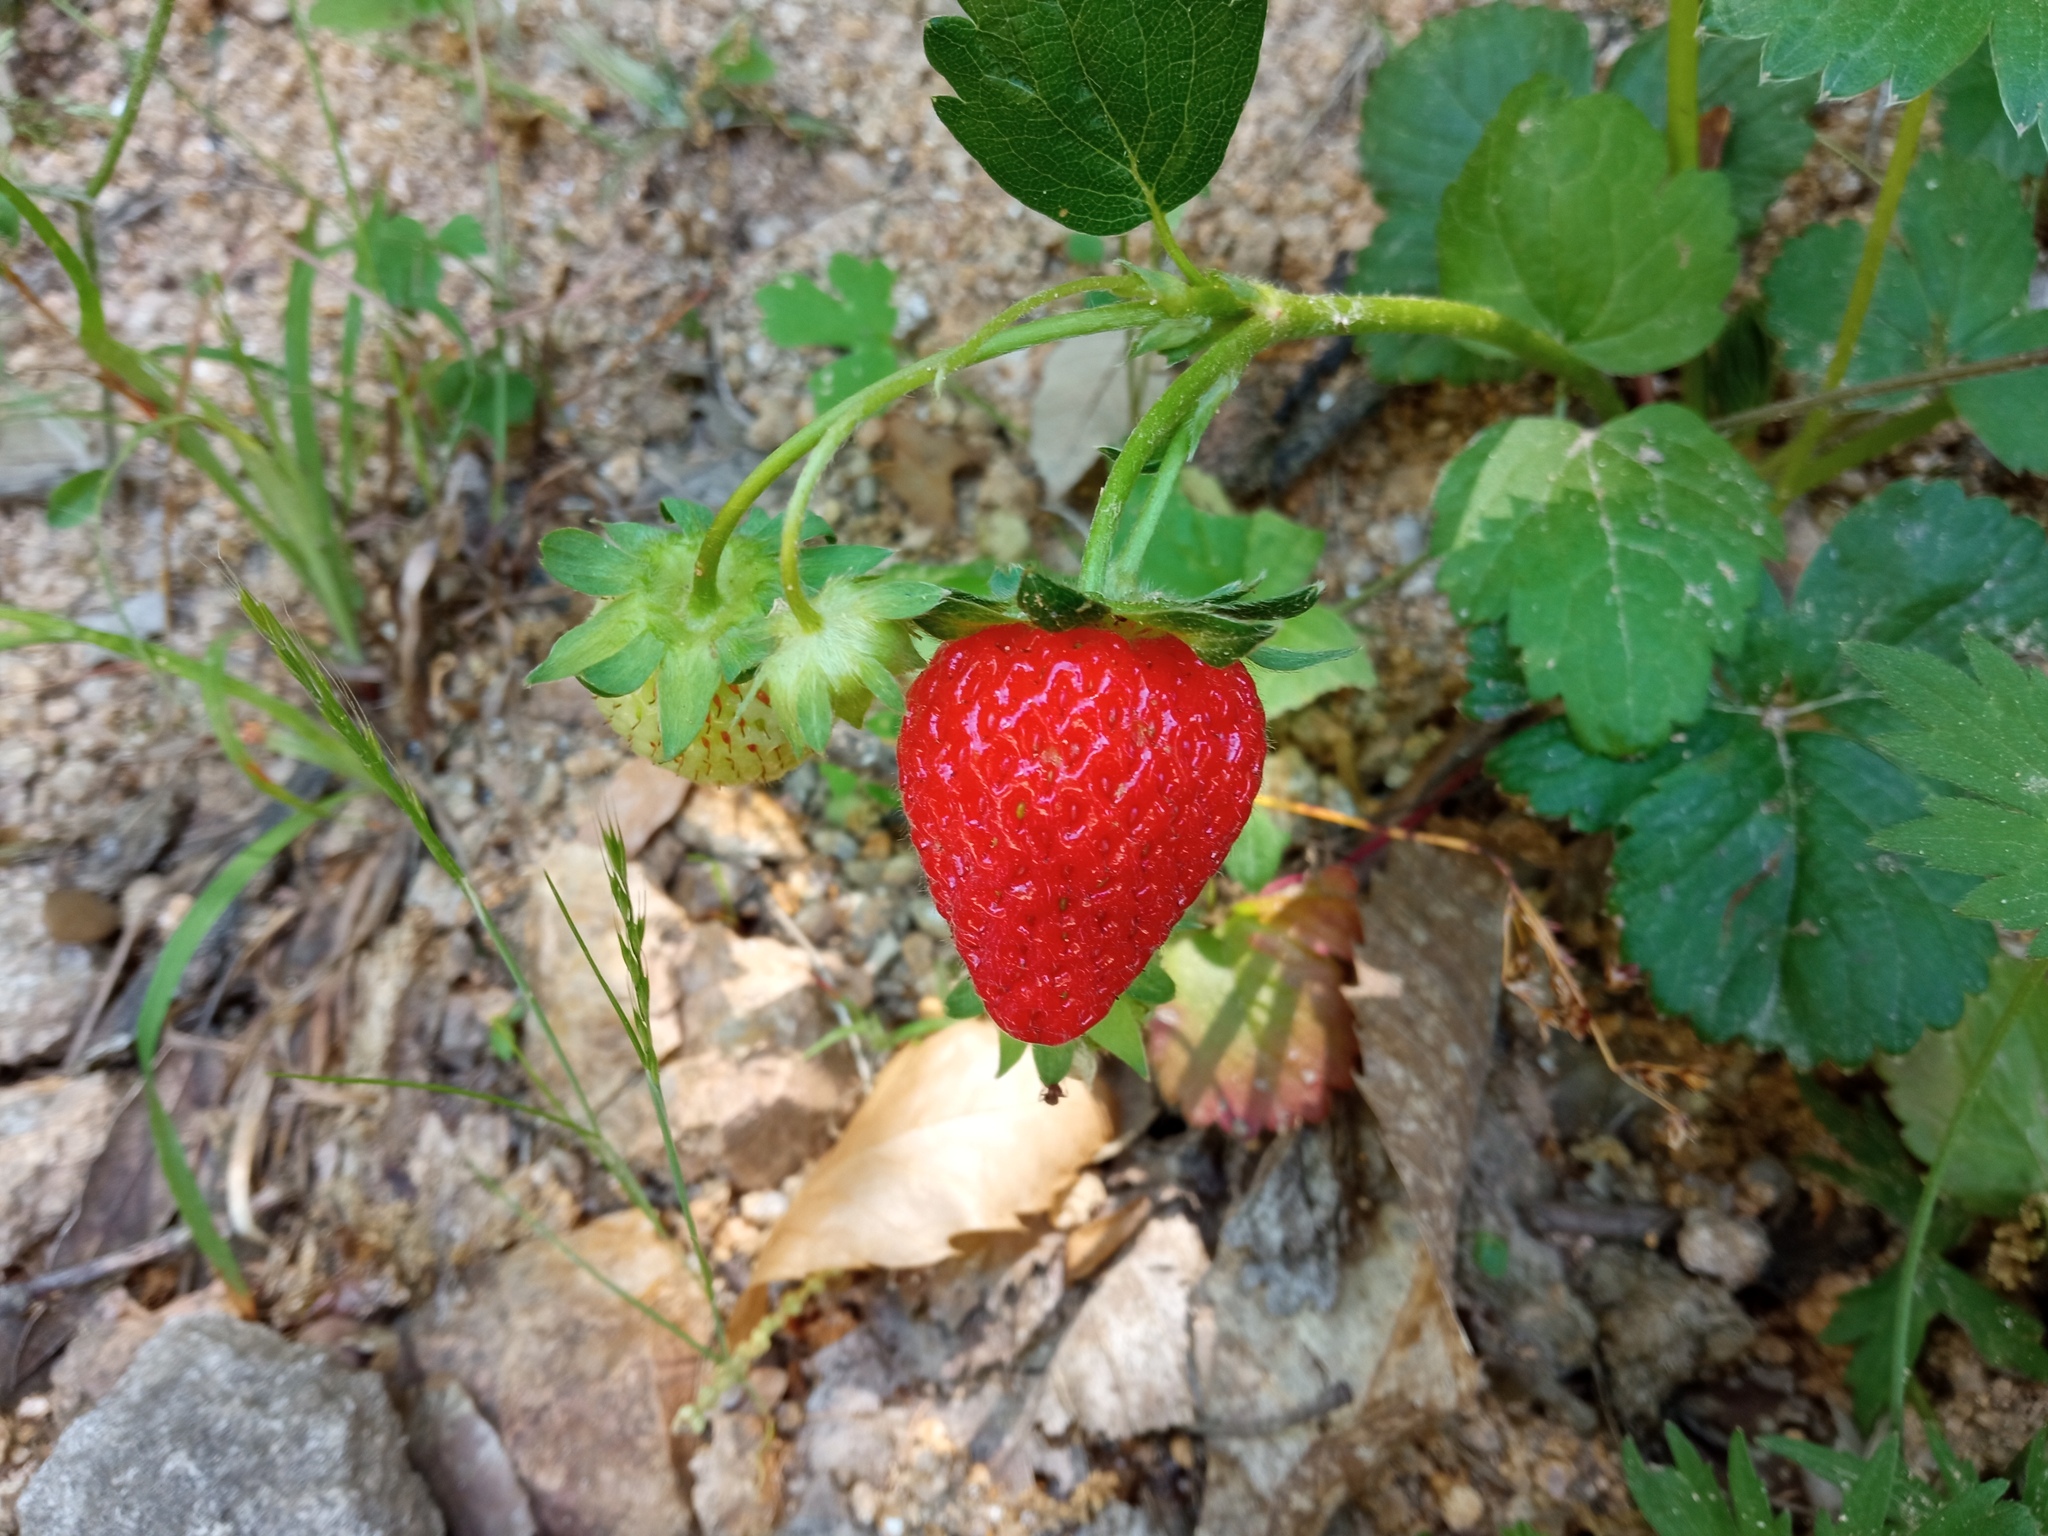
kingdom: Plantae
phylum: Tracheophyta
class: Magnoliopsida
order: Rosales
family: Rosaceae
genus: Fragaria
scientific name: Fragaria ananassa
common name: Garden strawberry
